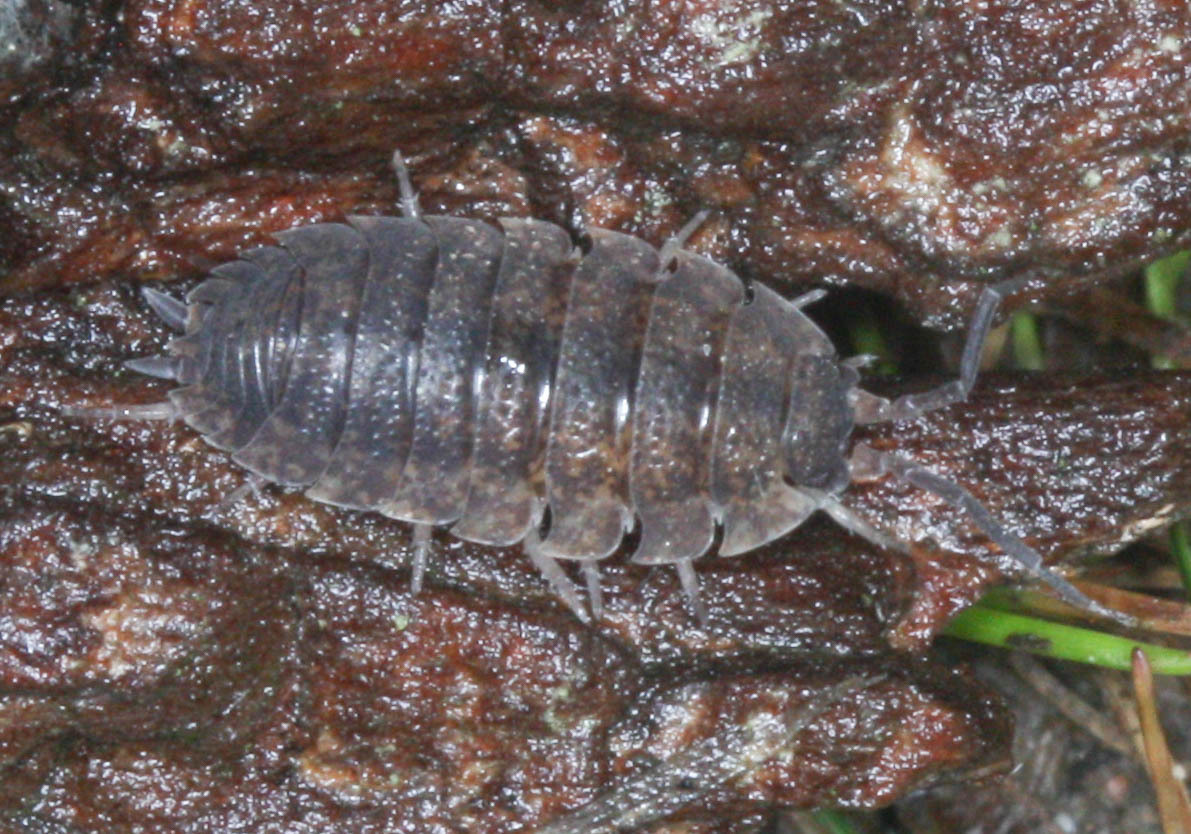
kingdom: Animalia
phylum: Arthropoda
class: Malacostraca
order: Isopoda
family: Porcellionidae
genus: Porcellio
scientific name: Porcellio scaber
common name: Common rough woodlouse
